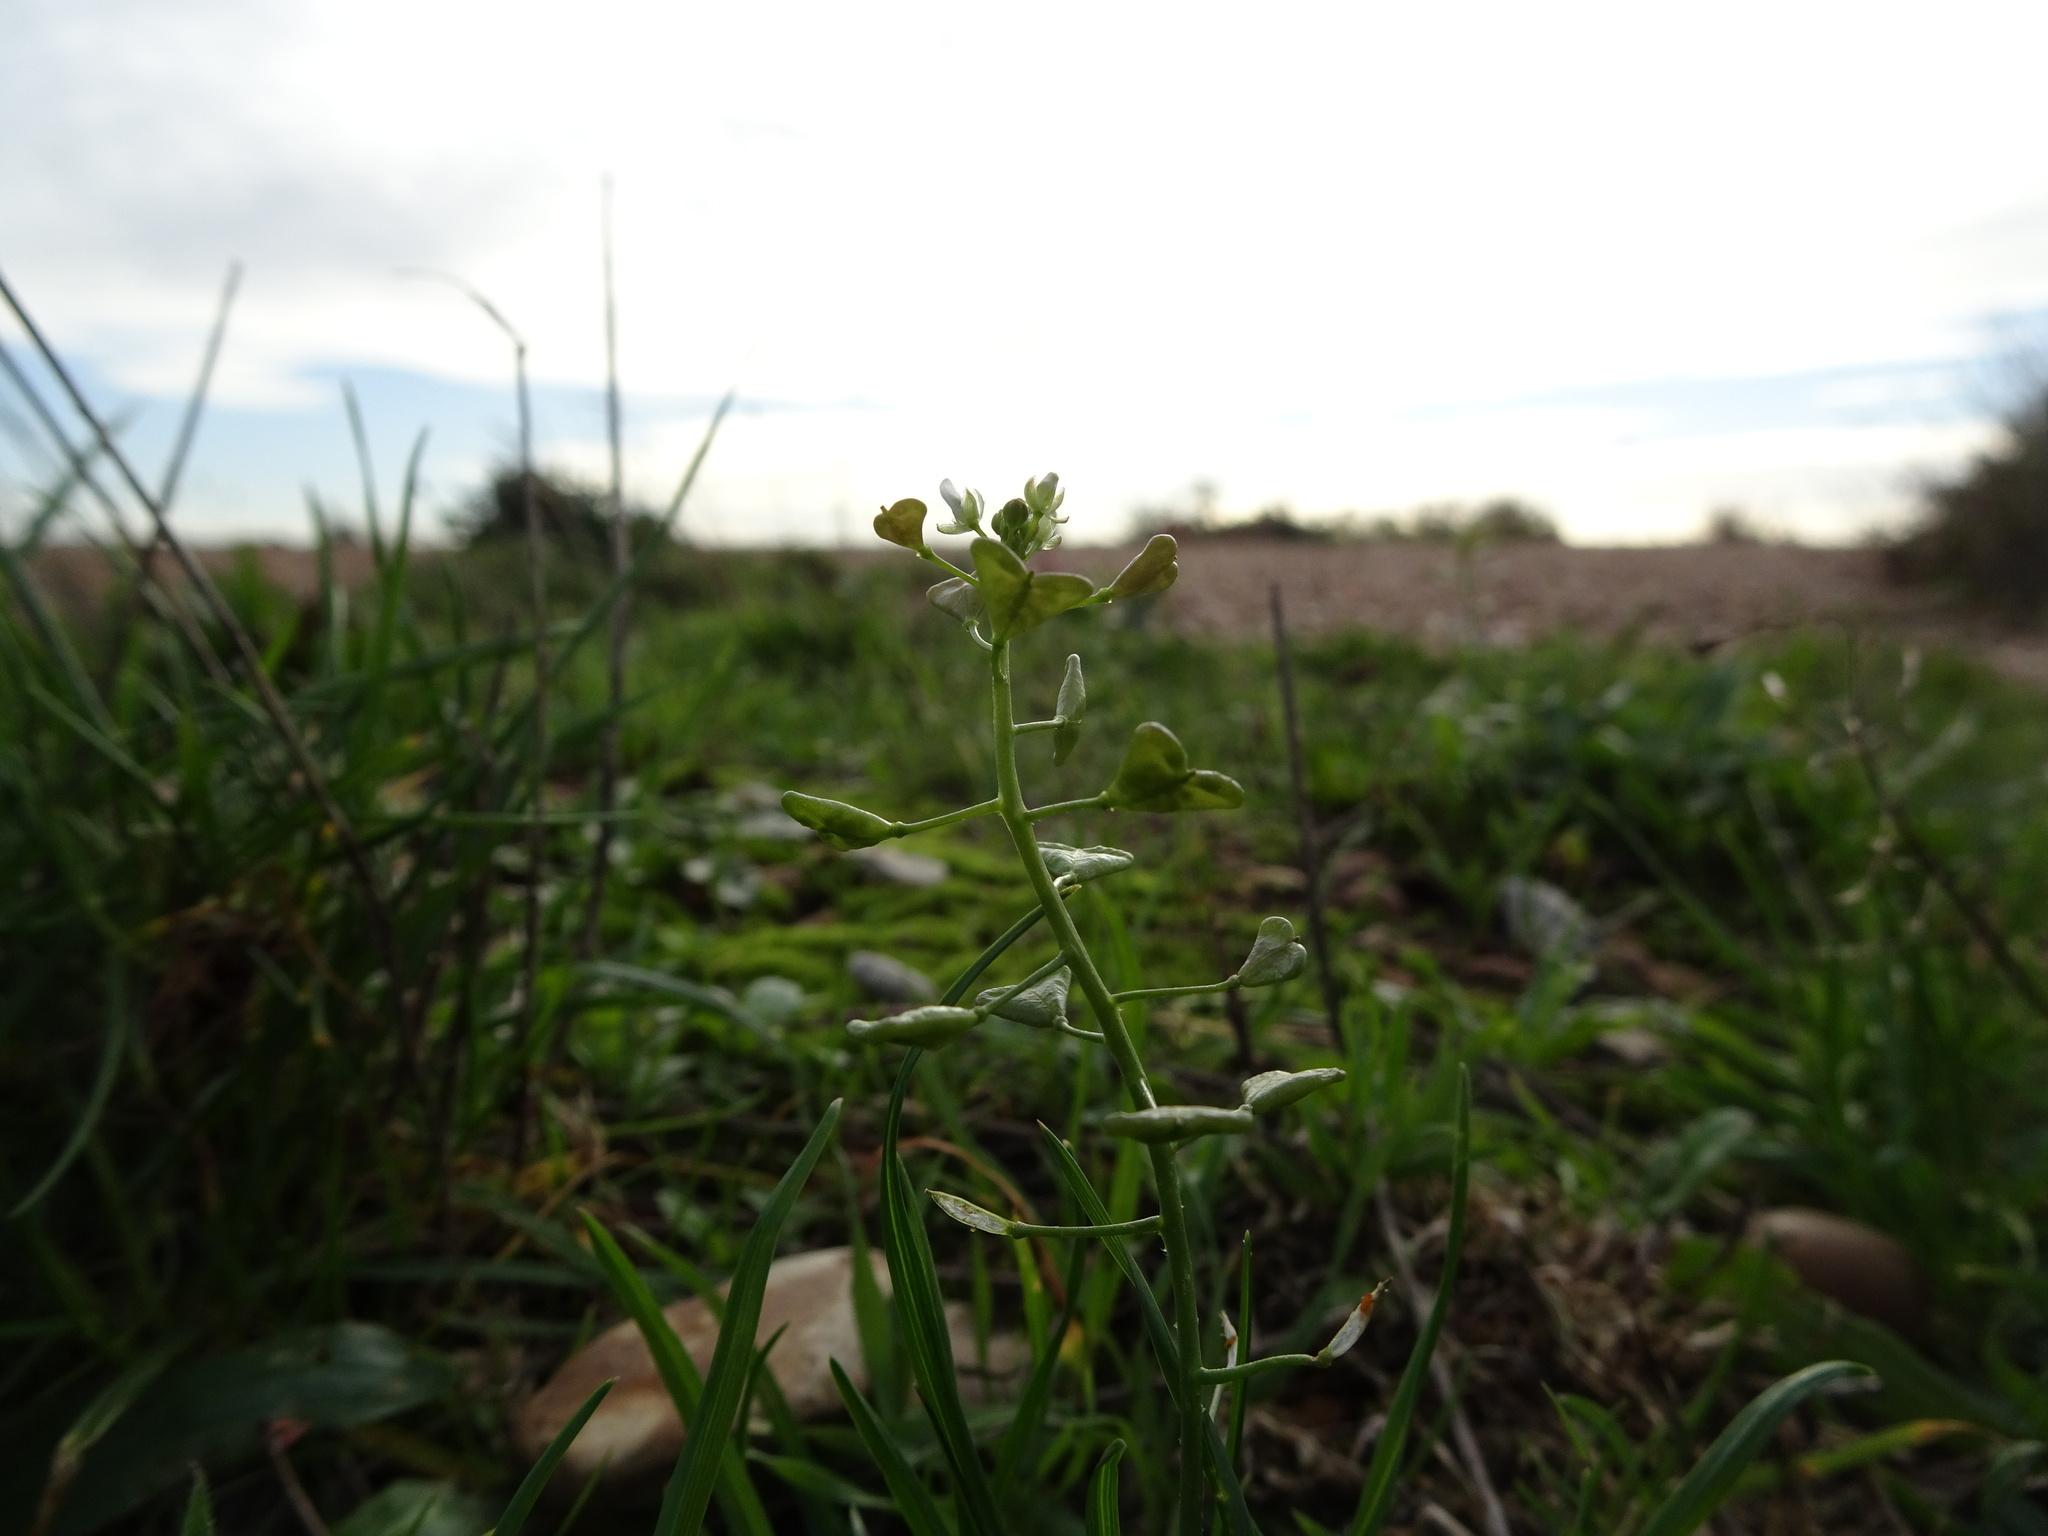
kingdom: Plantae
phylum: Tracheophyta
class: Magnoliopsida
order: Brassicales
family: Brassicaceae
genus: Capsella
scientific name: Capsella bursa-pastoris
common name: Shepherd's purse
